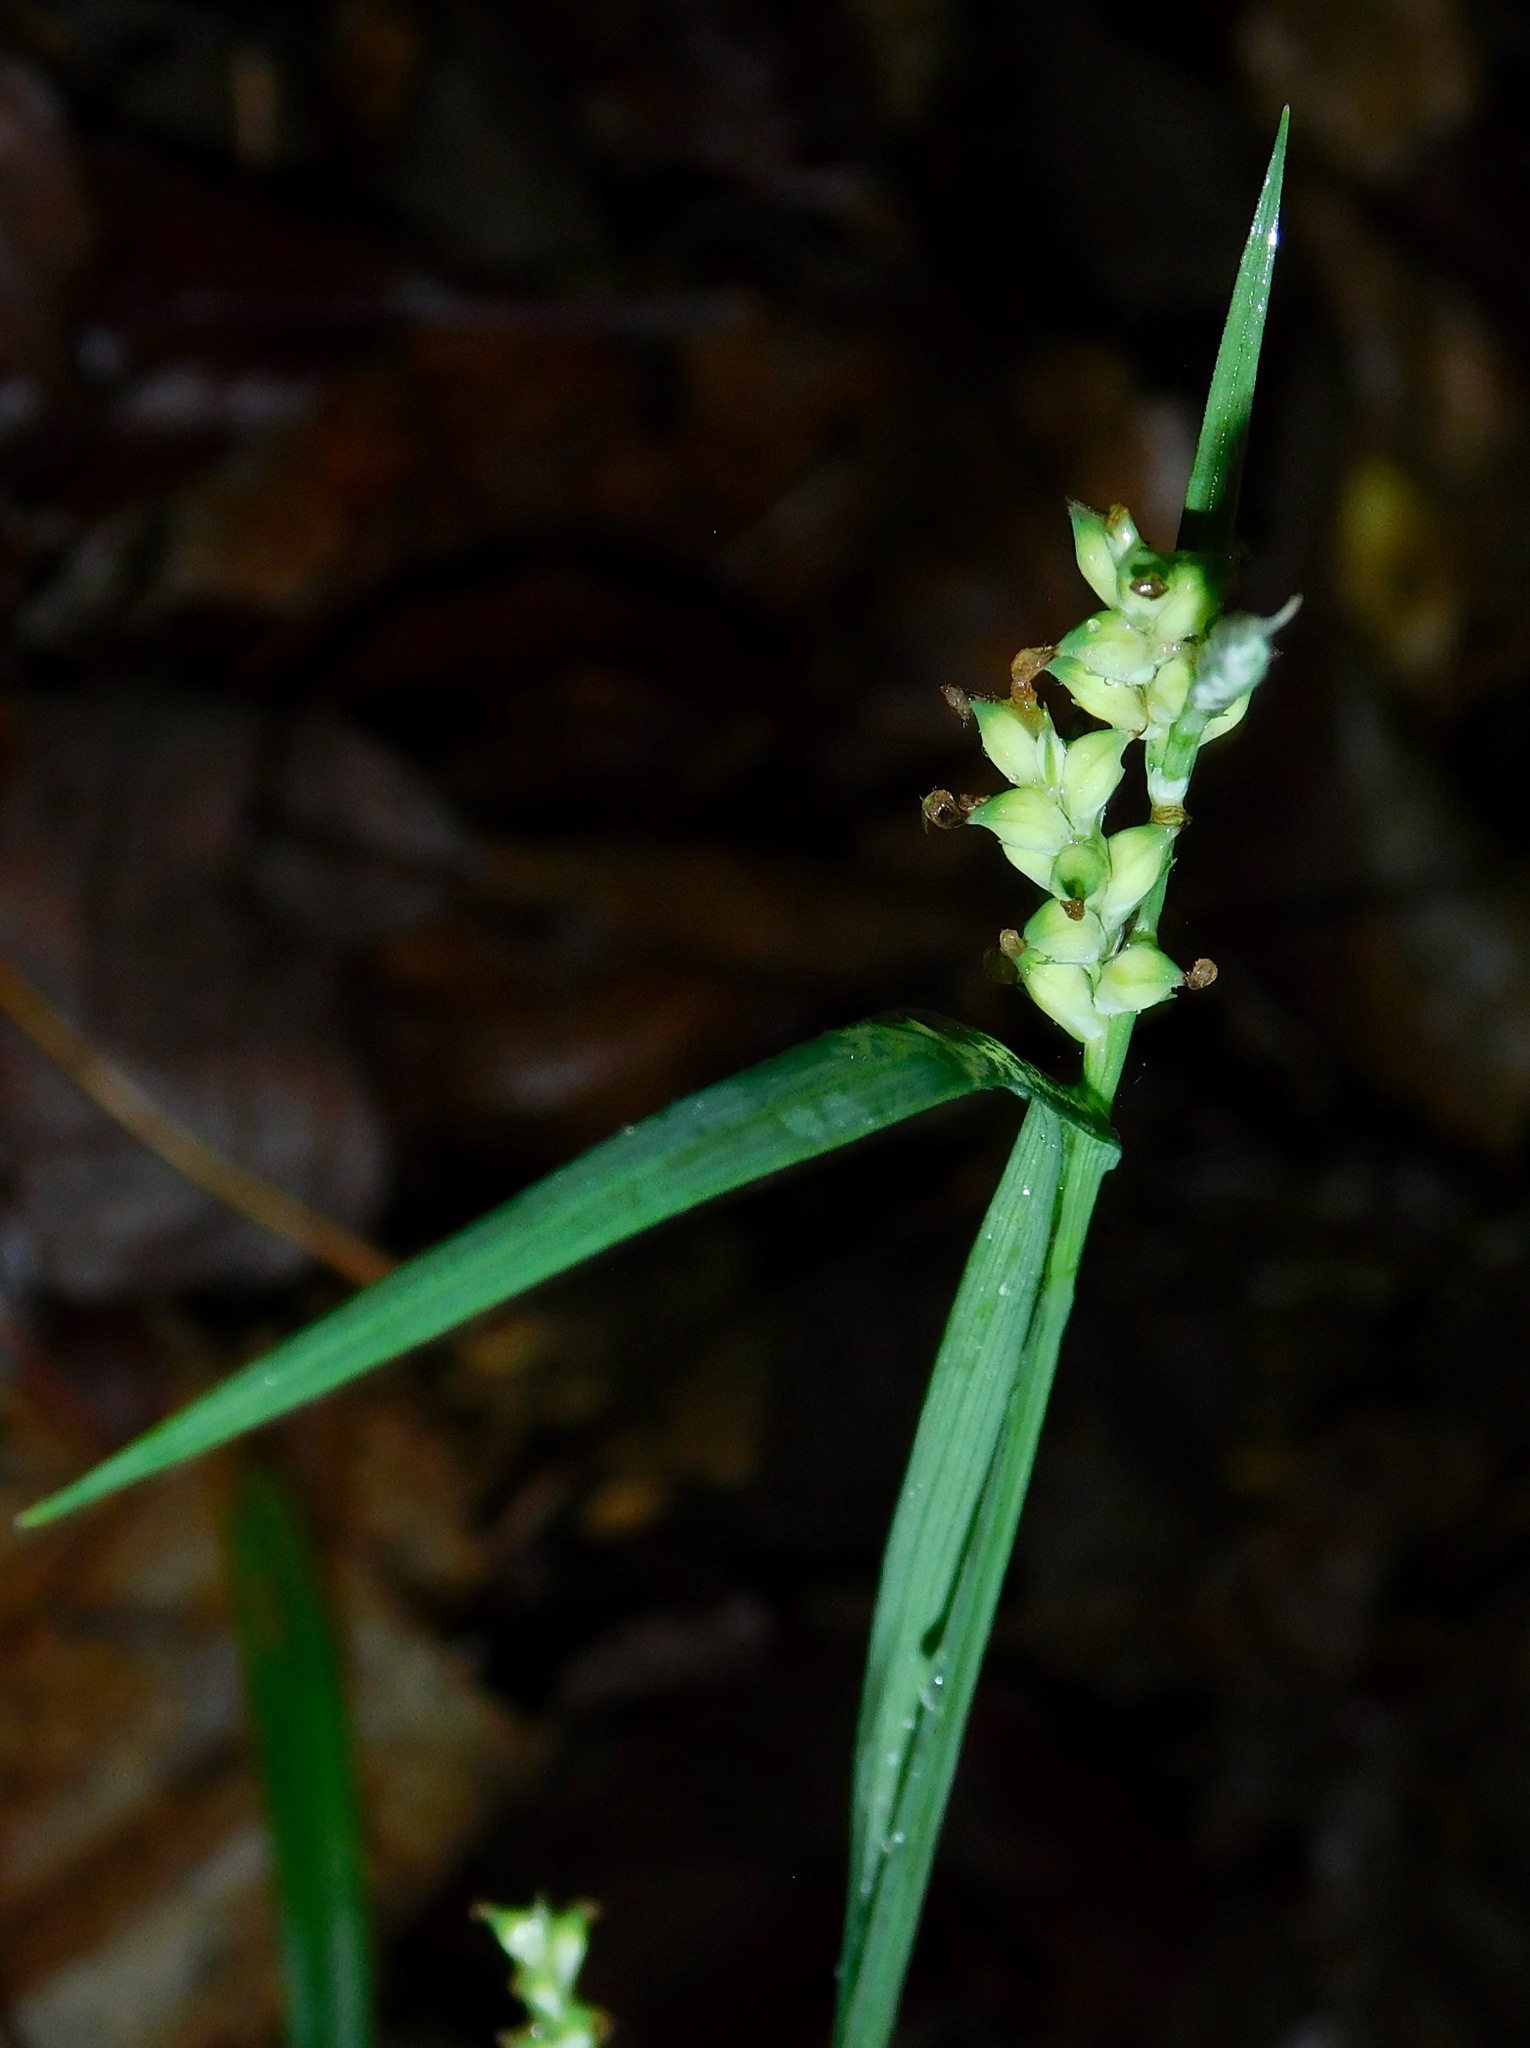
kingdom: Plantae
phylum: Tracheophyta
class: Liliopsida
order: Poales
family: Cyperaceae
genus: Carex
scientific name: Carex blanda
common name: Bland sedge
